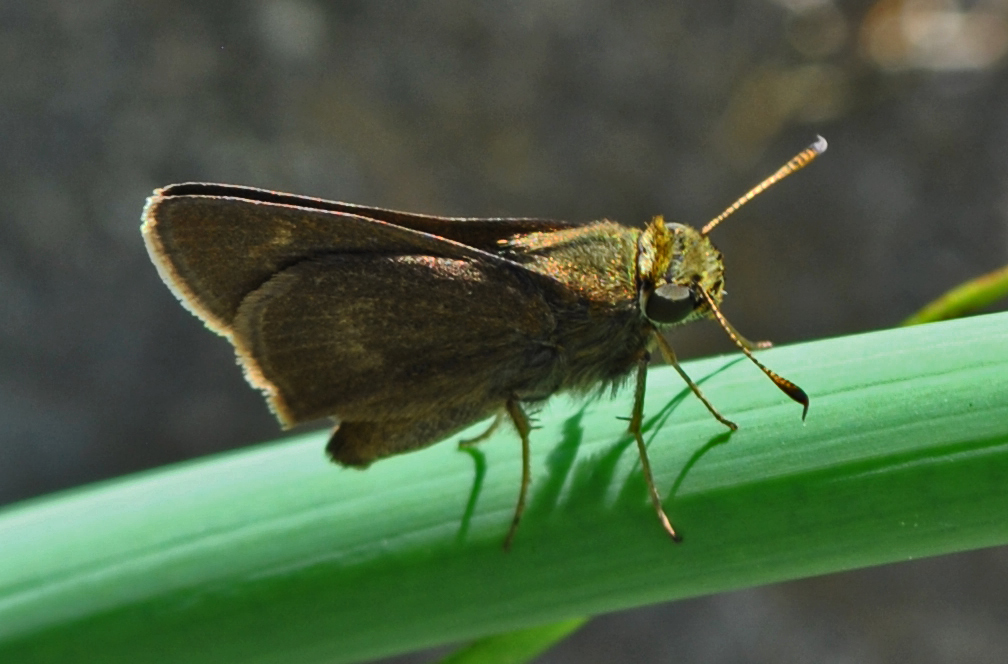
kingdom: Animalia
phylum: Arthropoda
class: Insecta
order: Lepidoptera
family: Hesperiidae
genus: Polites
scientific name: Polites egeremet
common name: Northern broken-dash
